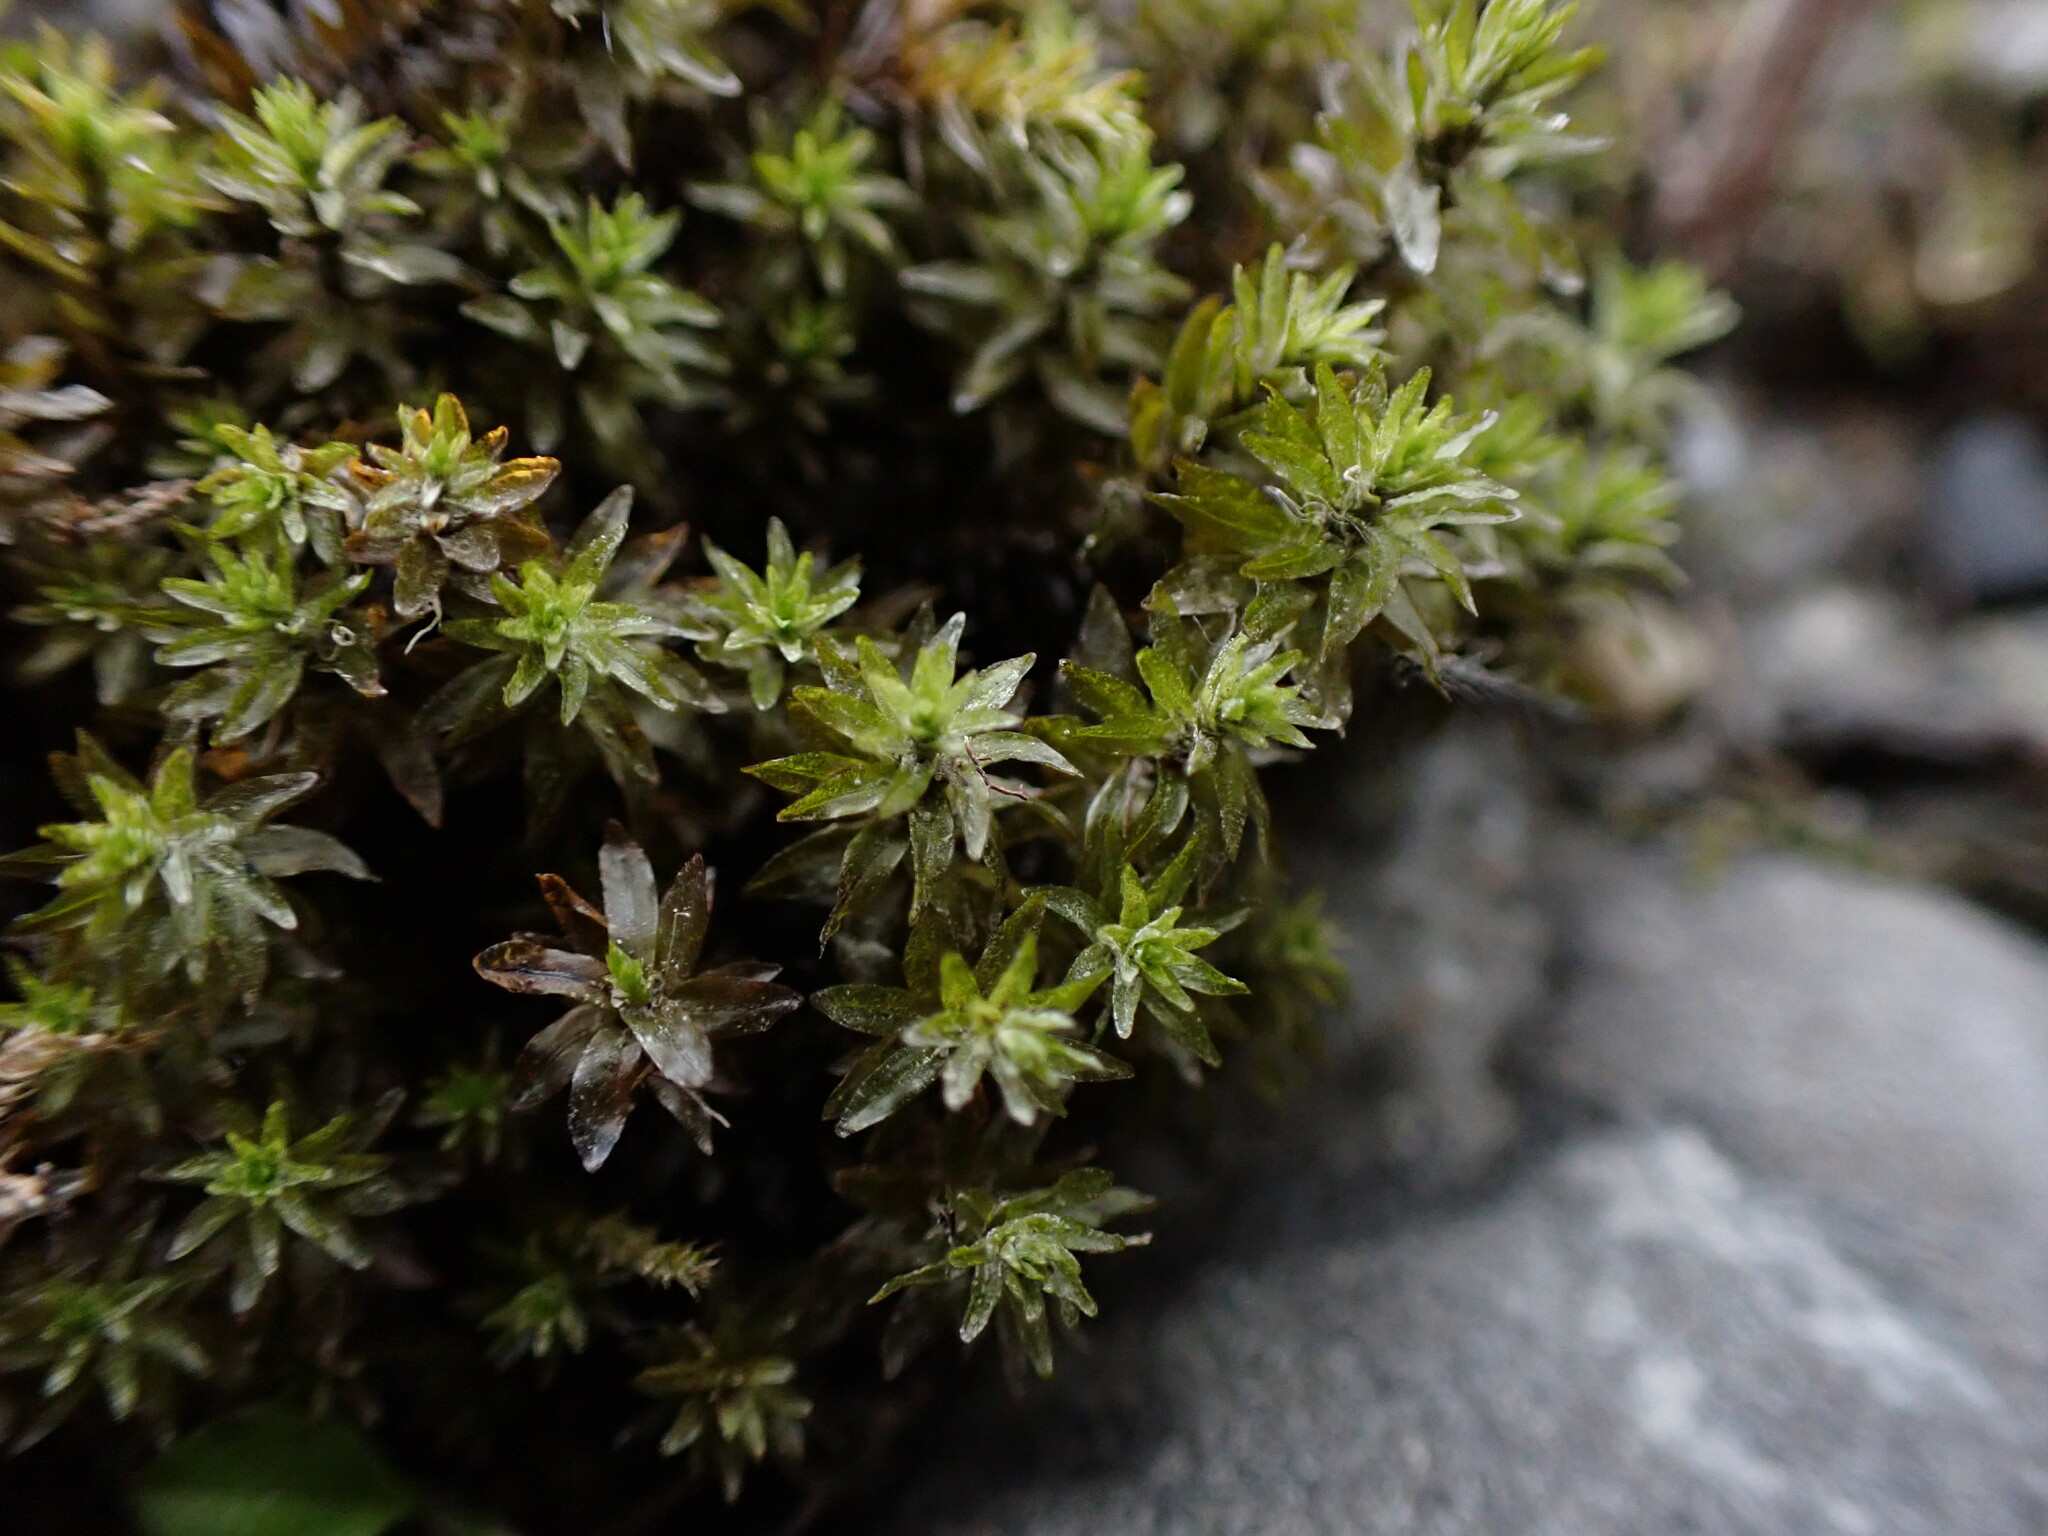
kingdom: Plantae
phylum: Bryophyta
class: Bryopsida
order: Scouleriales
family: Scouleriaceae
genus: Scouleria
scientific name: Scouleria aquatica
